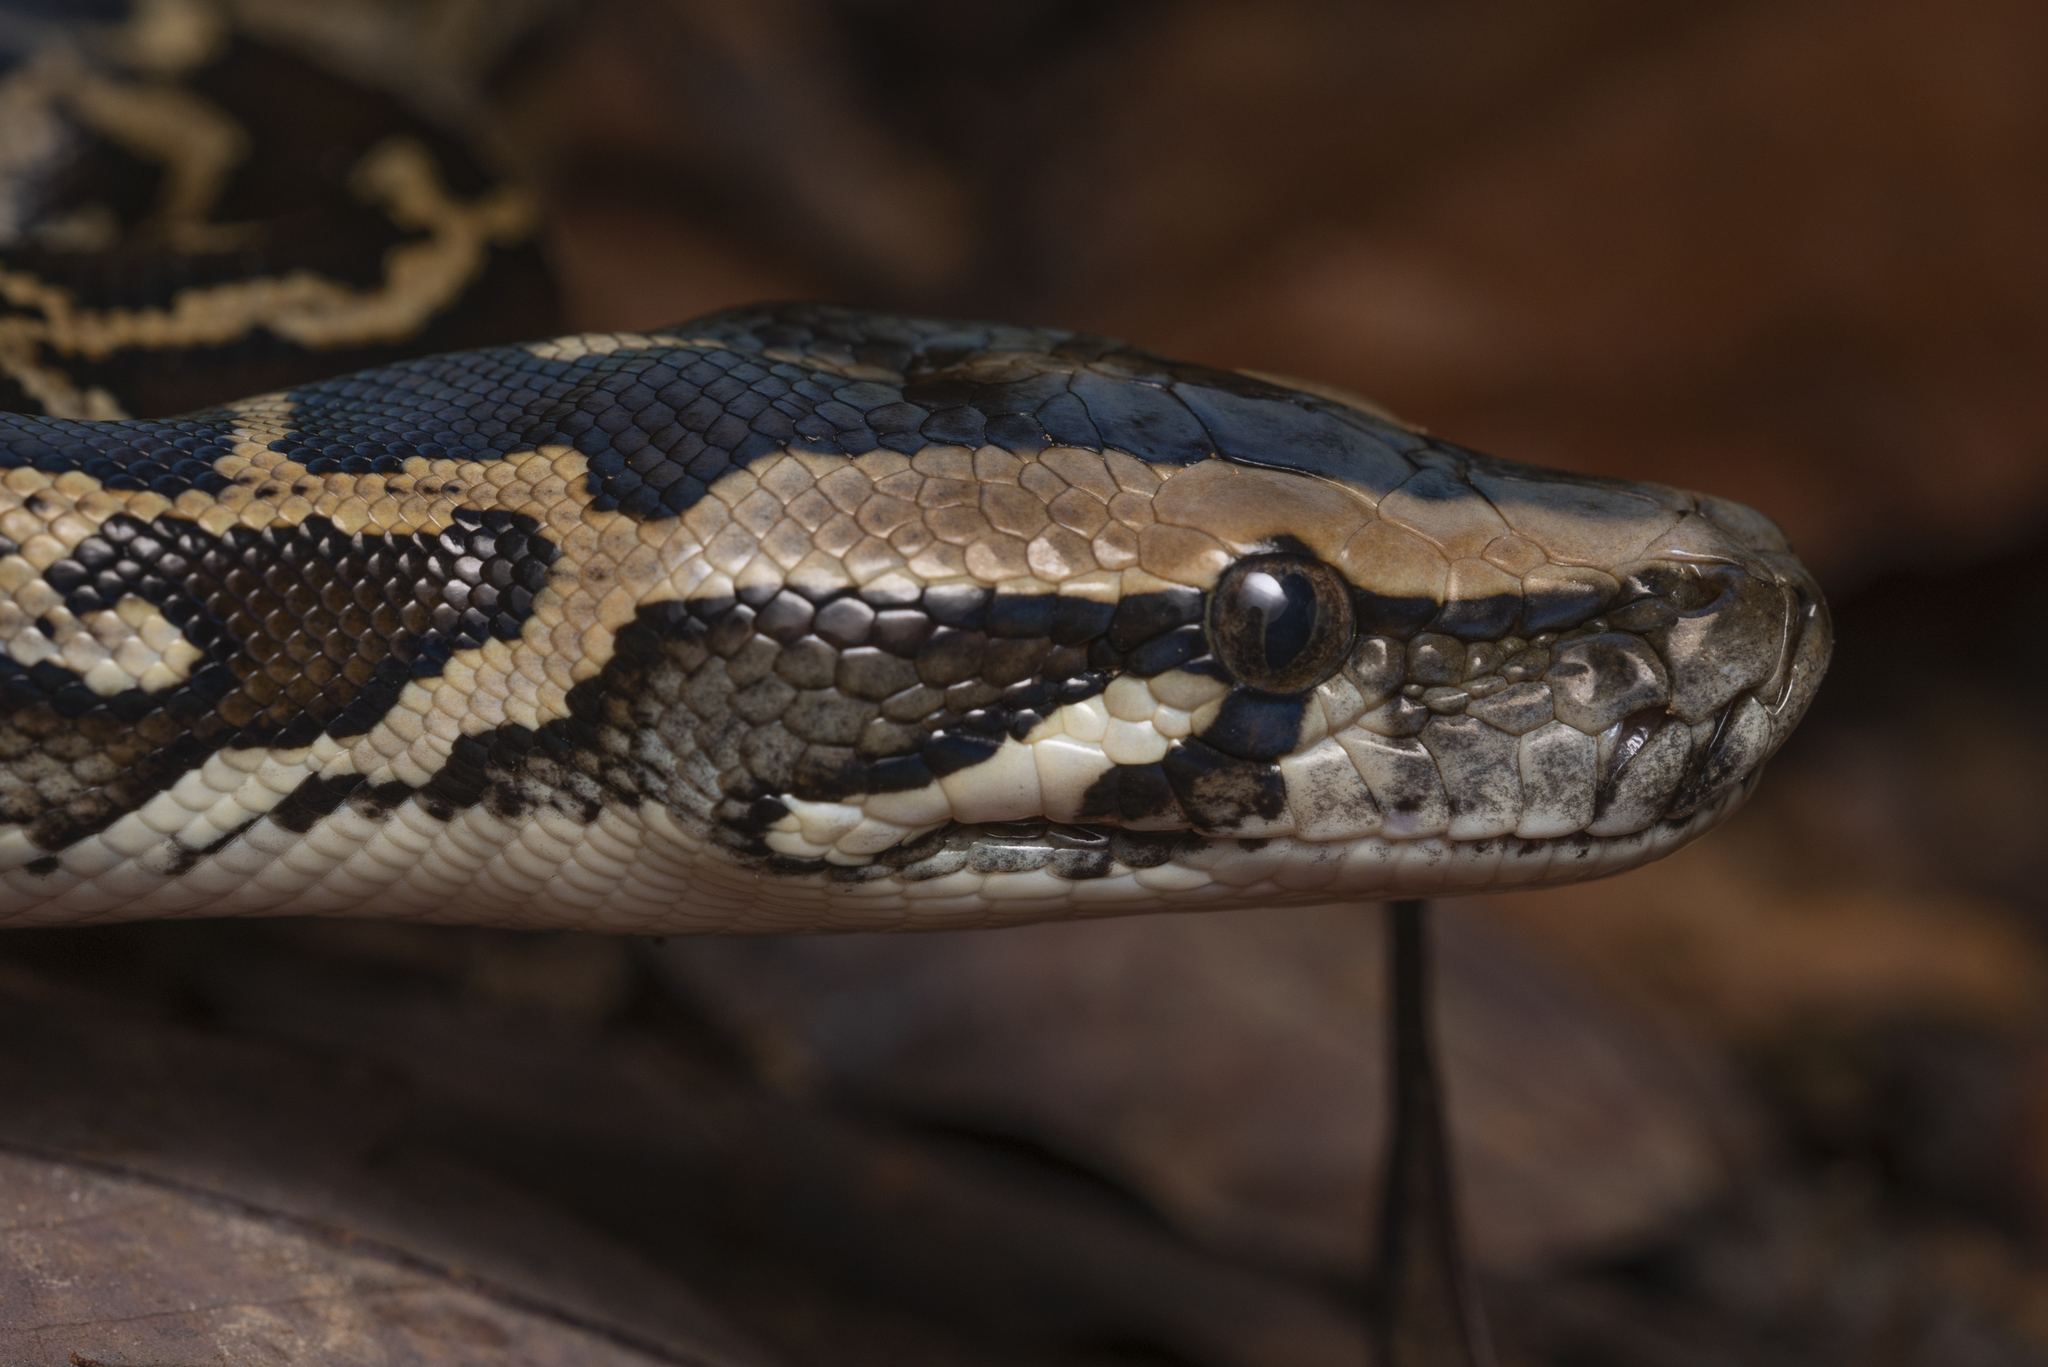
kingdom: Animalia
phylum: Chordata
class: Squamata
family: Pythonidae
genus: Python
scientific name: Python bivittatus
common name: Burmese python
